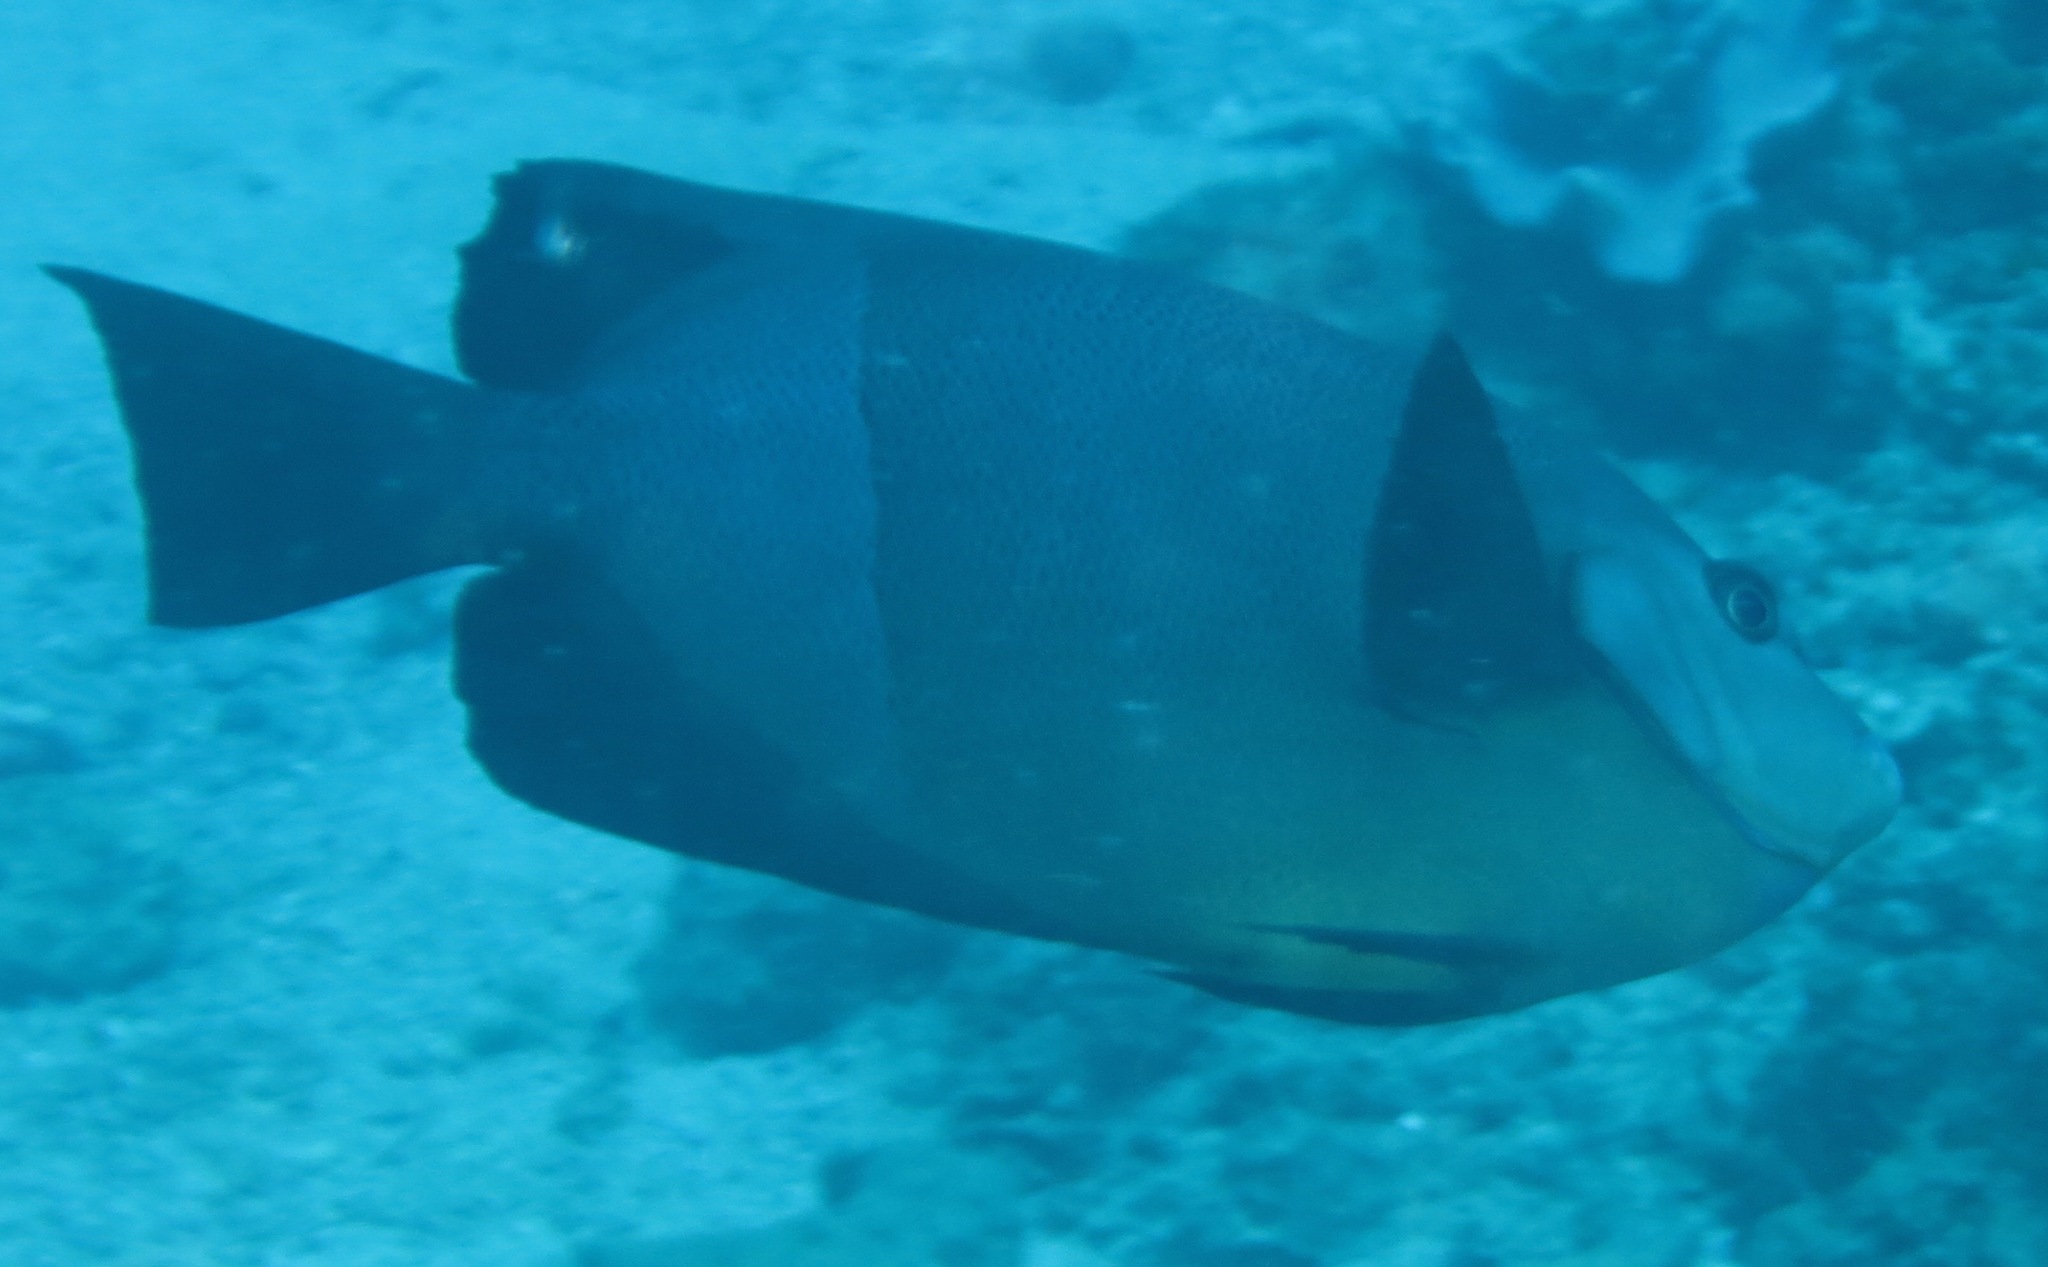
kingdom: Animalia
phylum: Chordata
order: Perciformes
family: Pomacanthidae
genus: Pomacanthus
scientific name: Pomacanthus rhomboides
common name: Old woman
